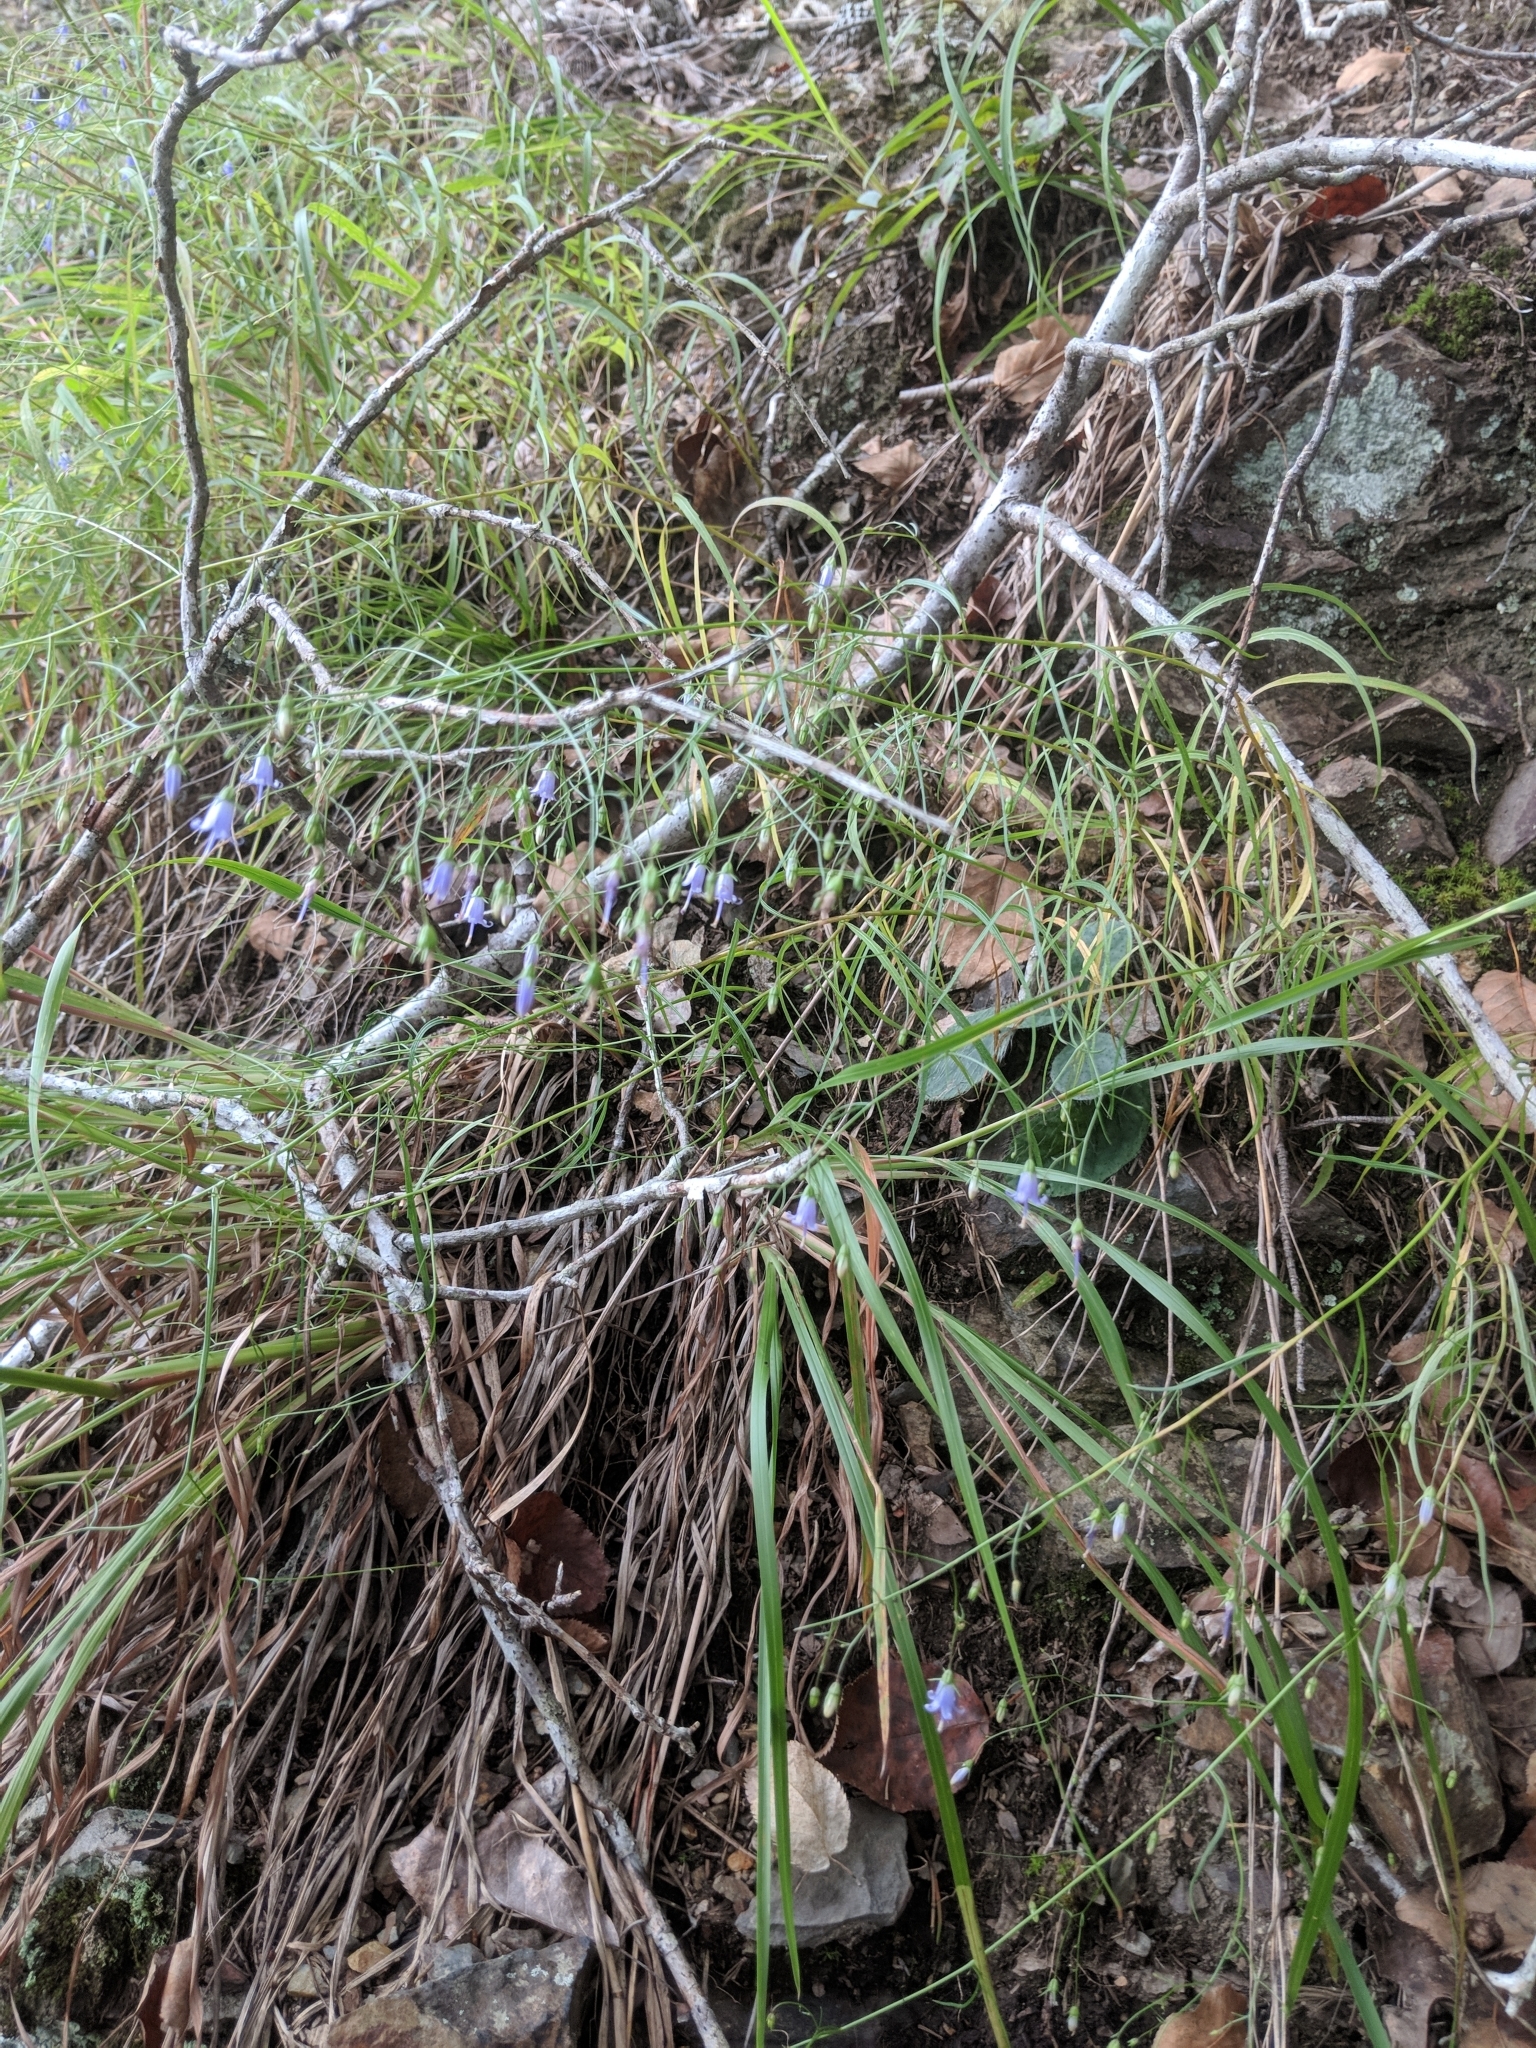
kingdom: Plantae
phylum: Tracheophyta
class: Magnoliopsida
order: Asterales
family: Campanulaceae
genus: Campanula
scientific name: Campanula divaricata
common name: Appalachian bellflower
